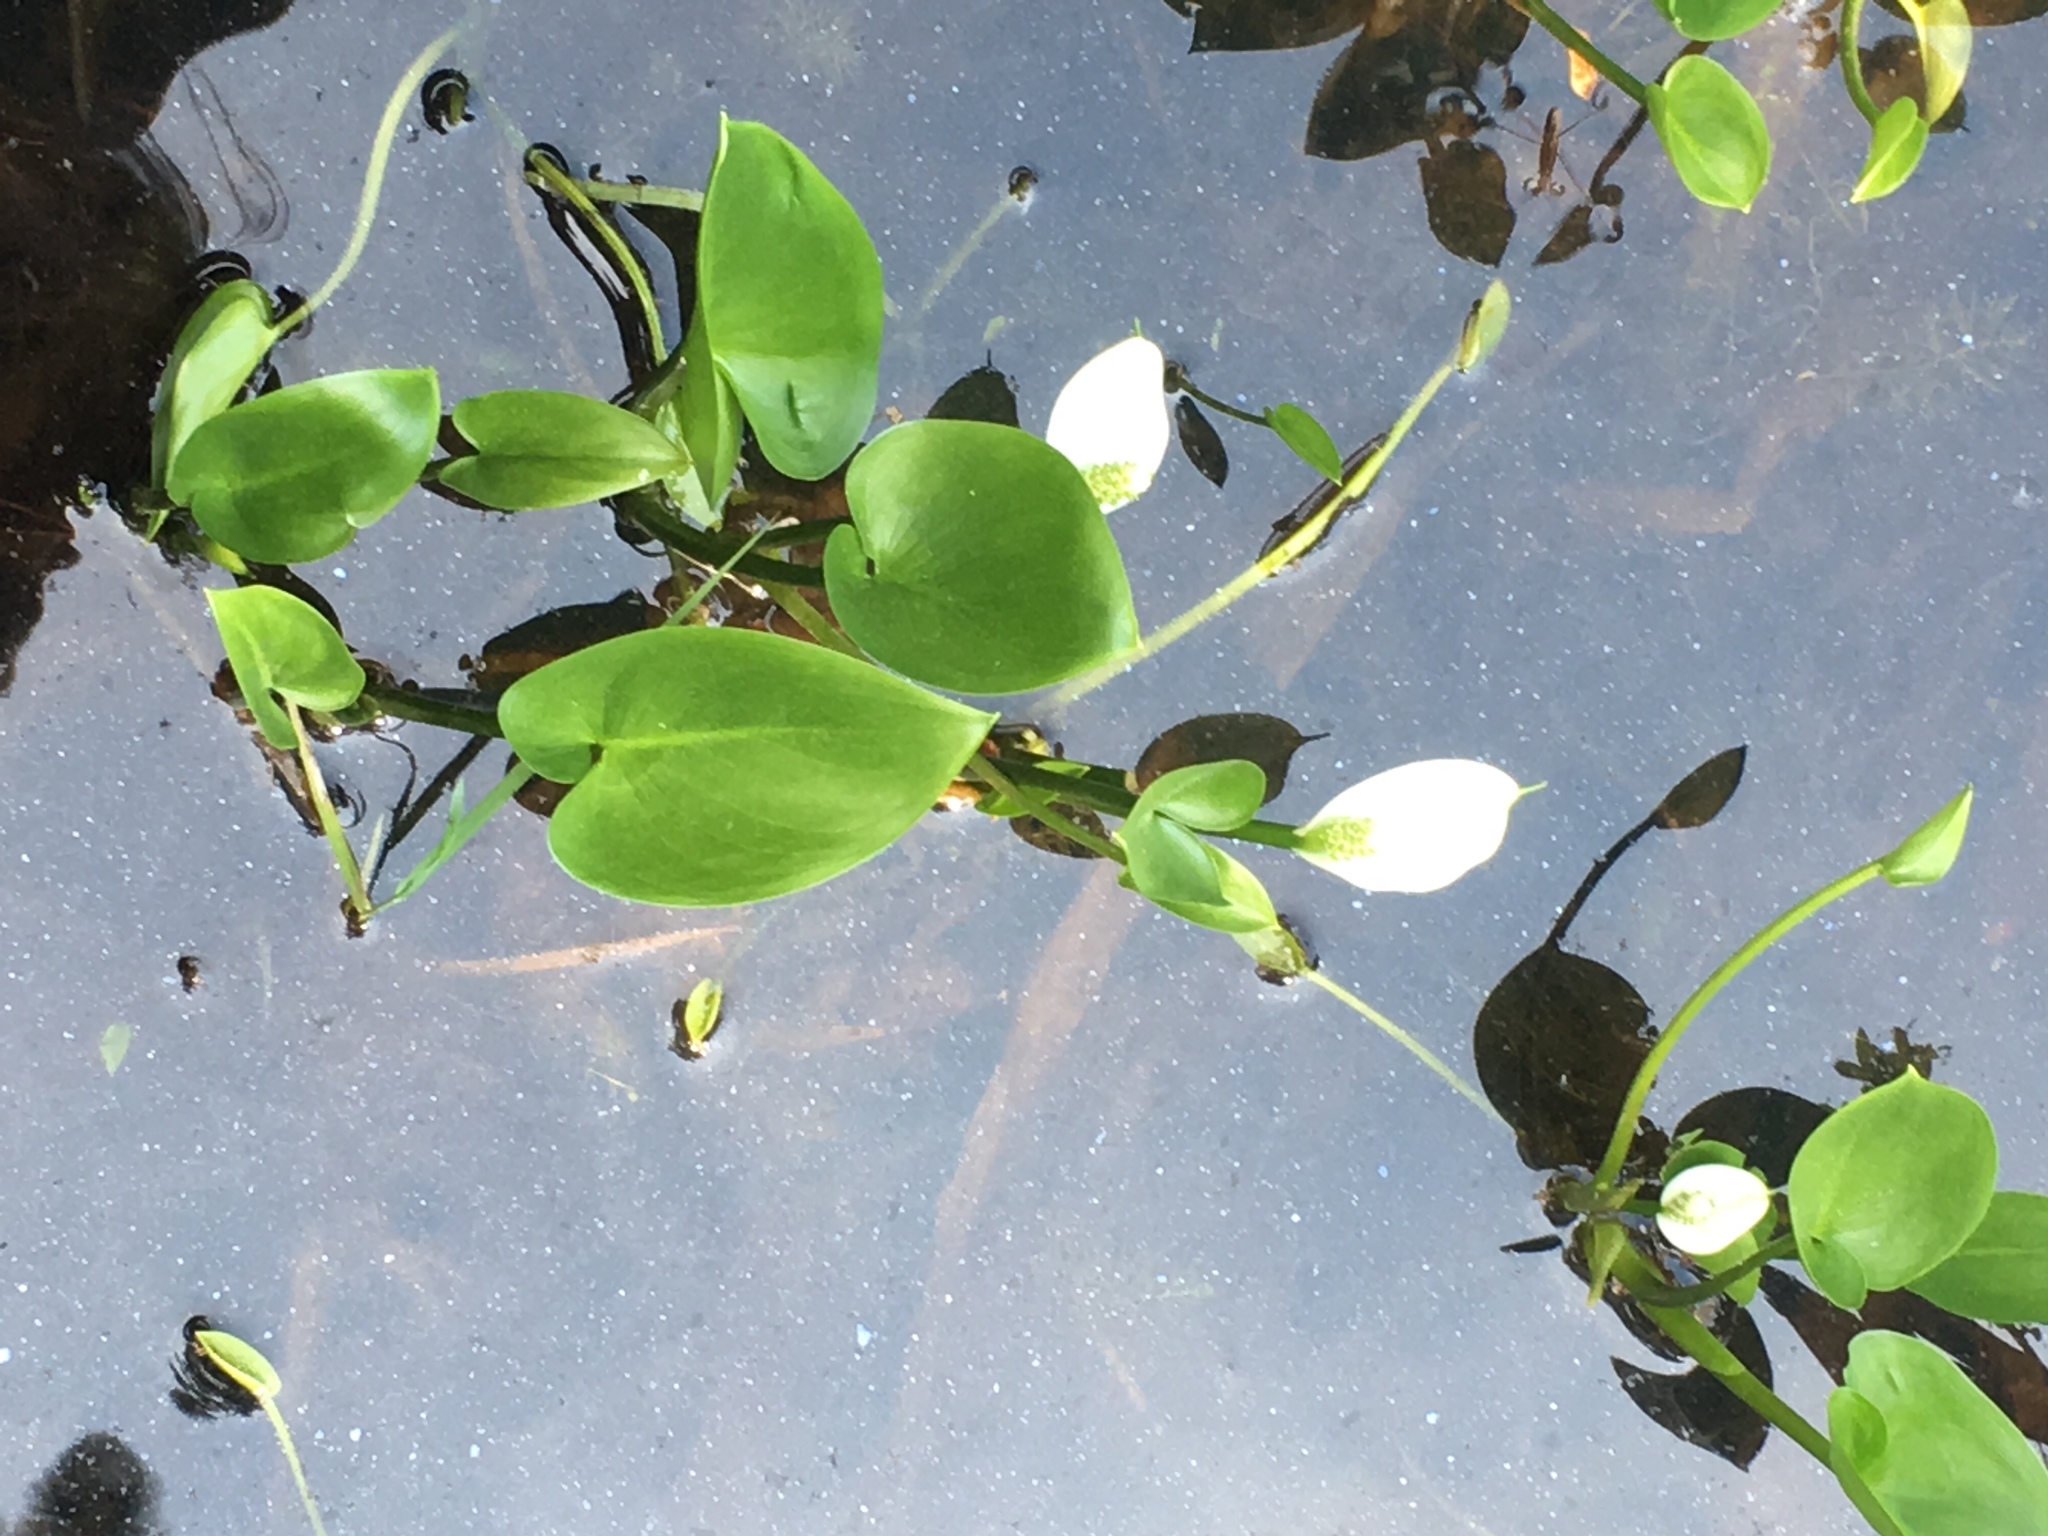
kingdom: Plantae
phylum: Tracheophyta
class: Liliopsida
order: Alismatales
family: Araceae
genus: Calla
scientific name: Calla palustris
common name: Bog arum
